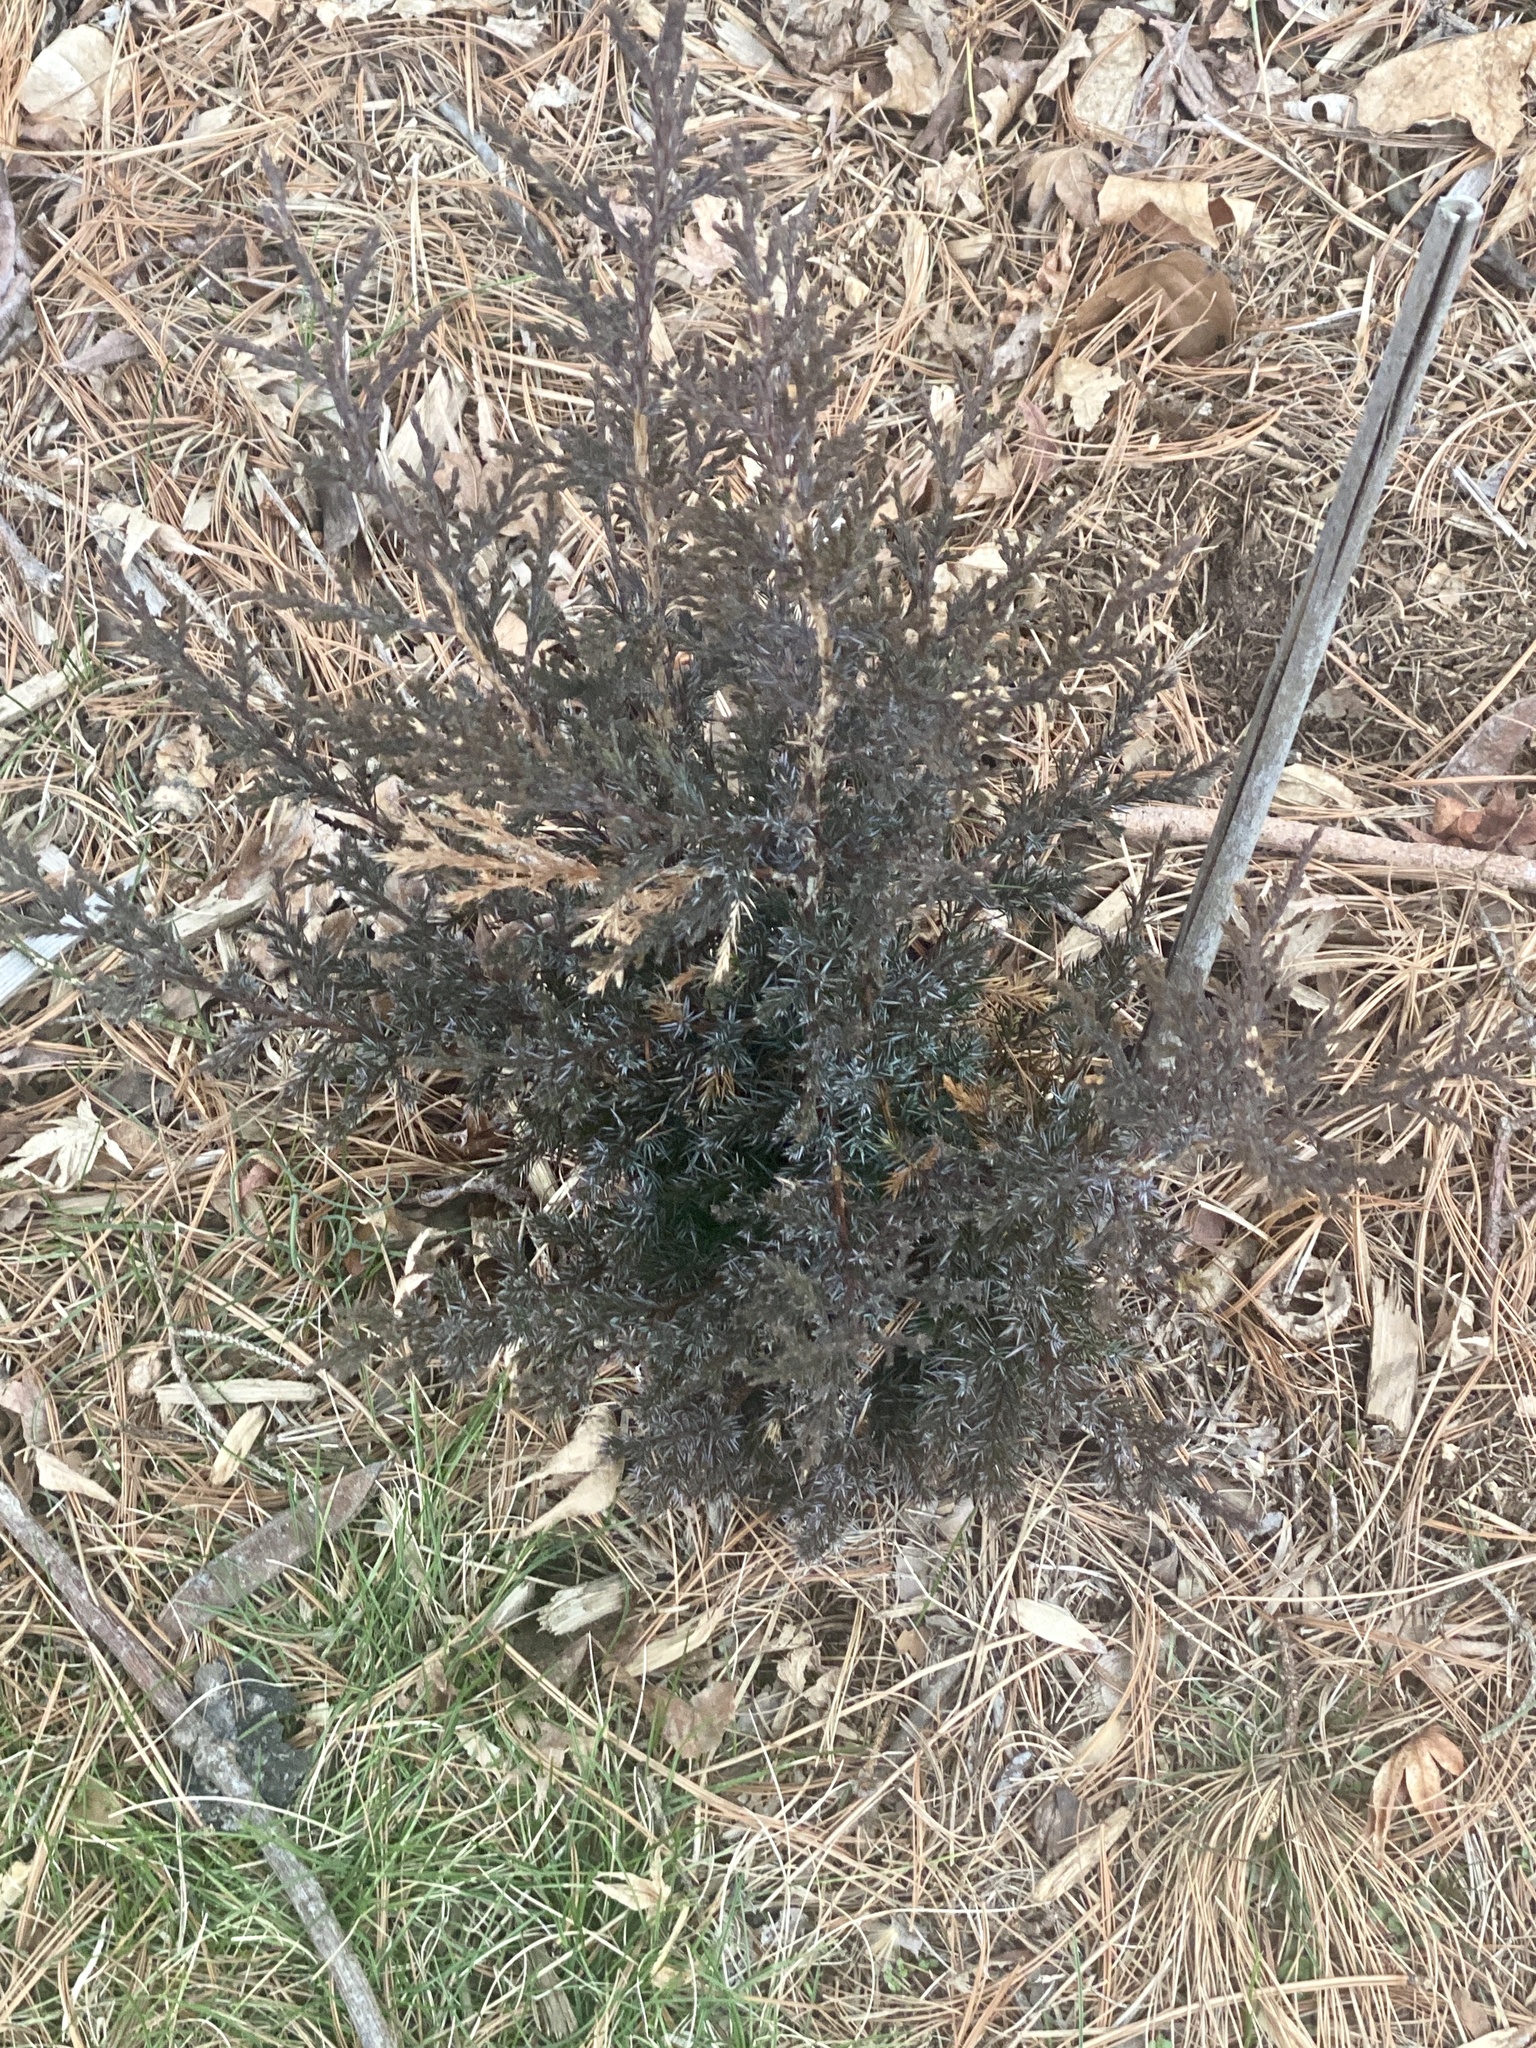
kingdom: Plantae
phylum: Tracheophyta
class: Pinopsida
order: Pinales
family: Cupressaceae
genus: Juniperus
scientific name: Juniperus virginiana
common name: Red juniper
